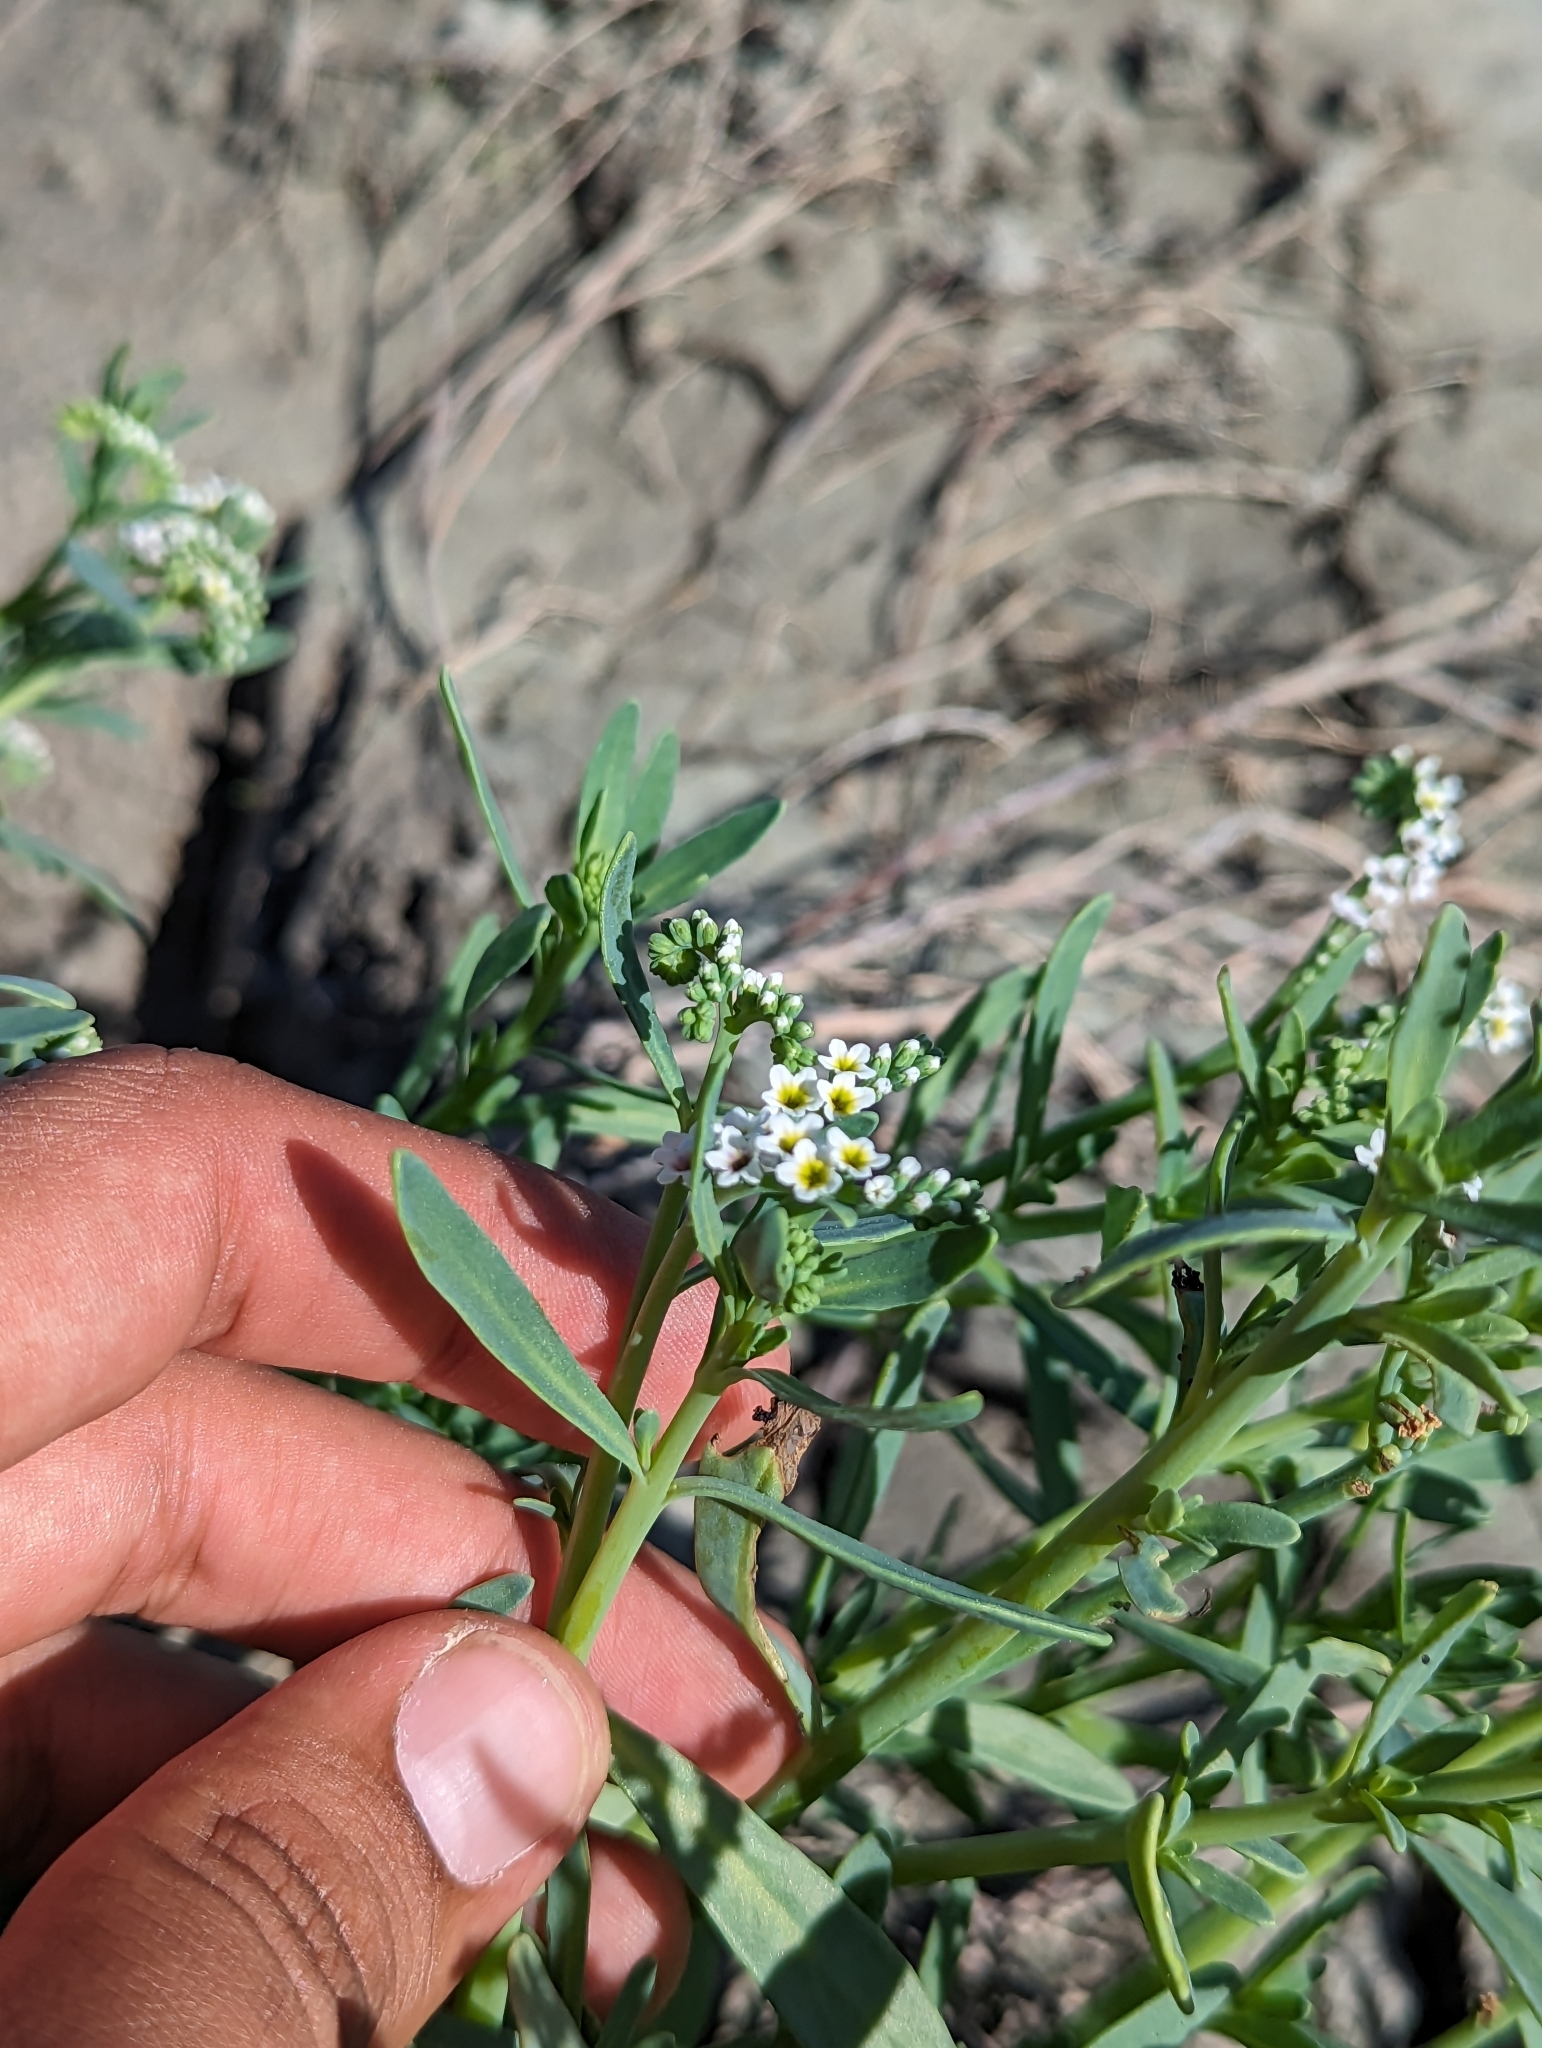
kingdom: Plantae
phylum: Tracheophyta
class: Magnoliopsida
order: Boraginales
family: Heliotropiaceae
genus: Heliotropium
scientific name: Heliotropium curassavicum
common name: Seaside heliotrope
